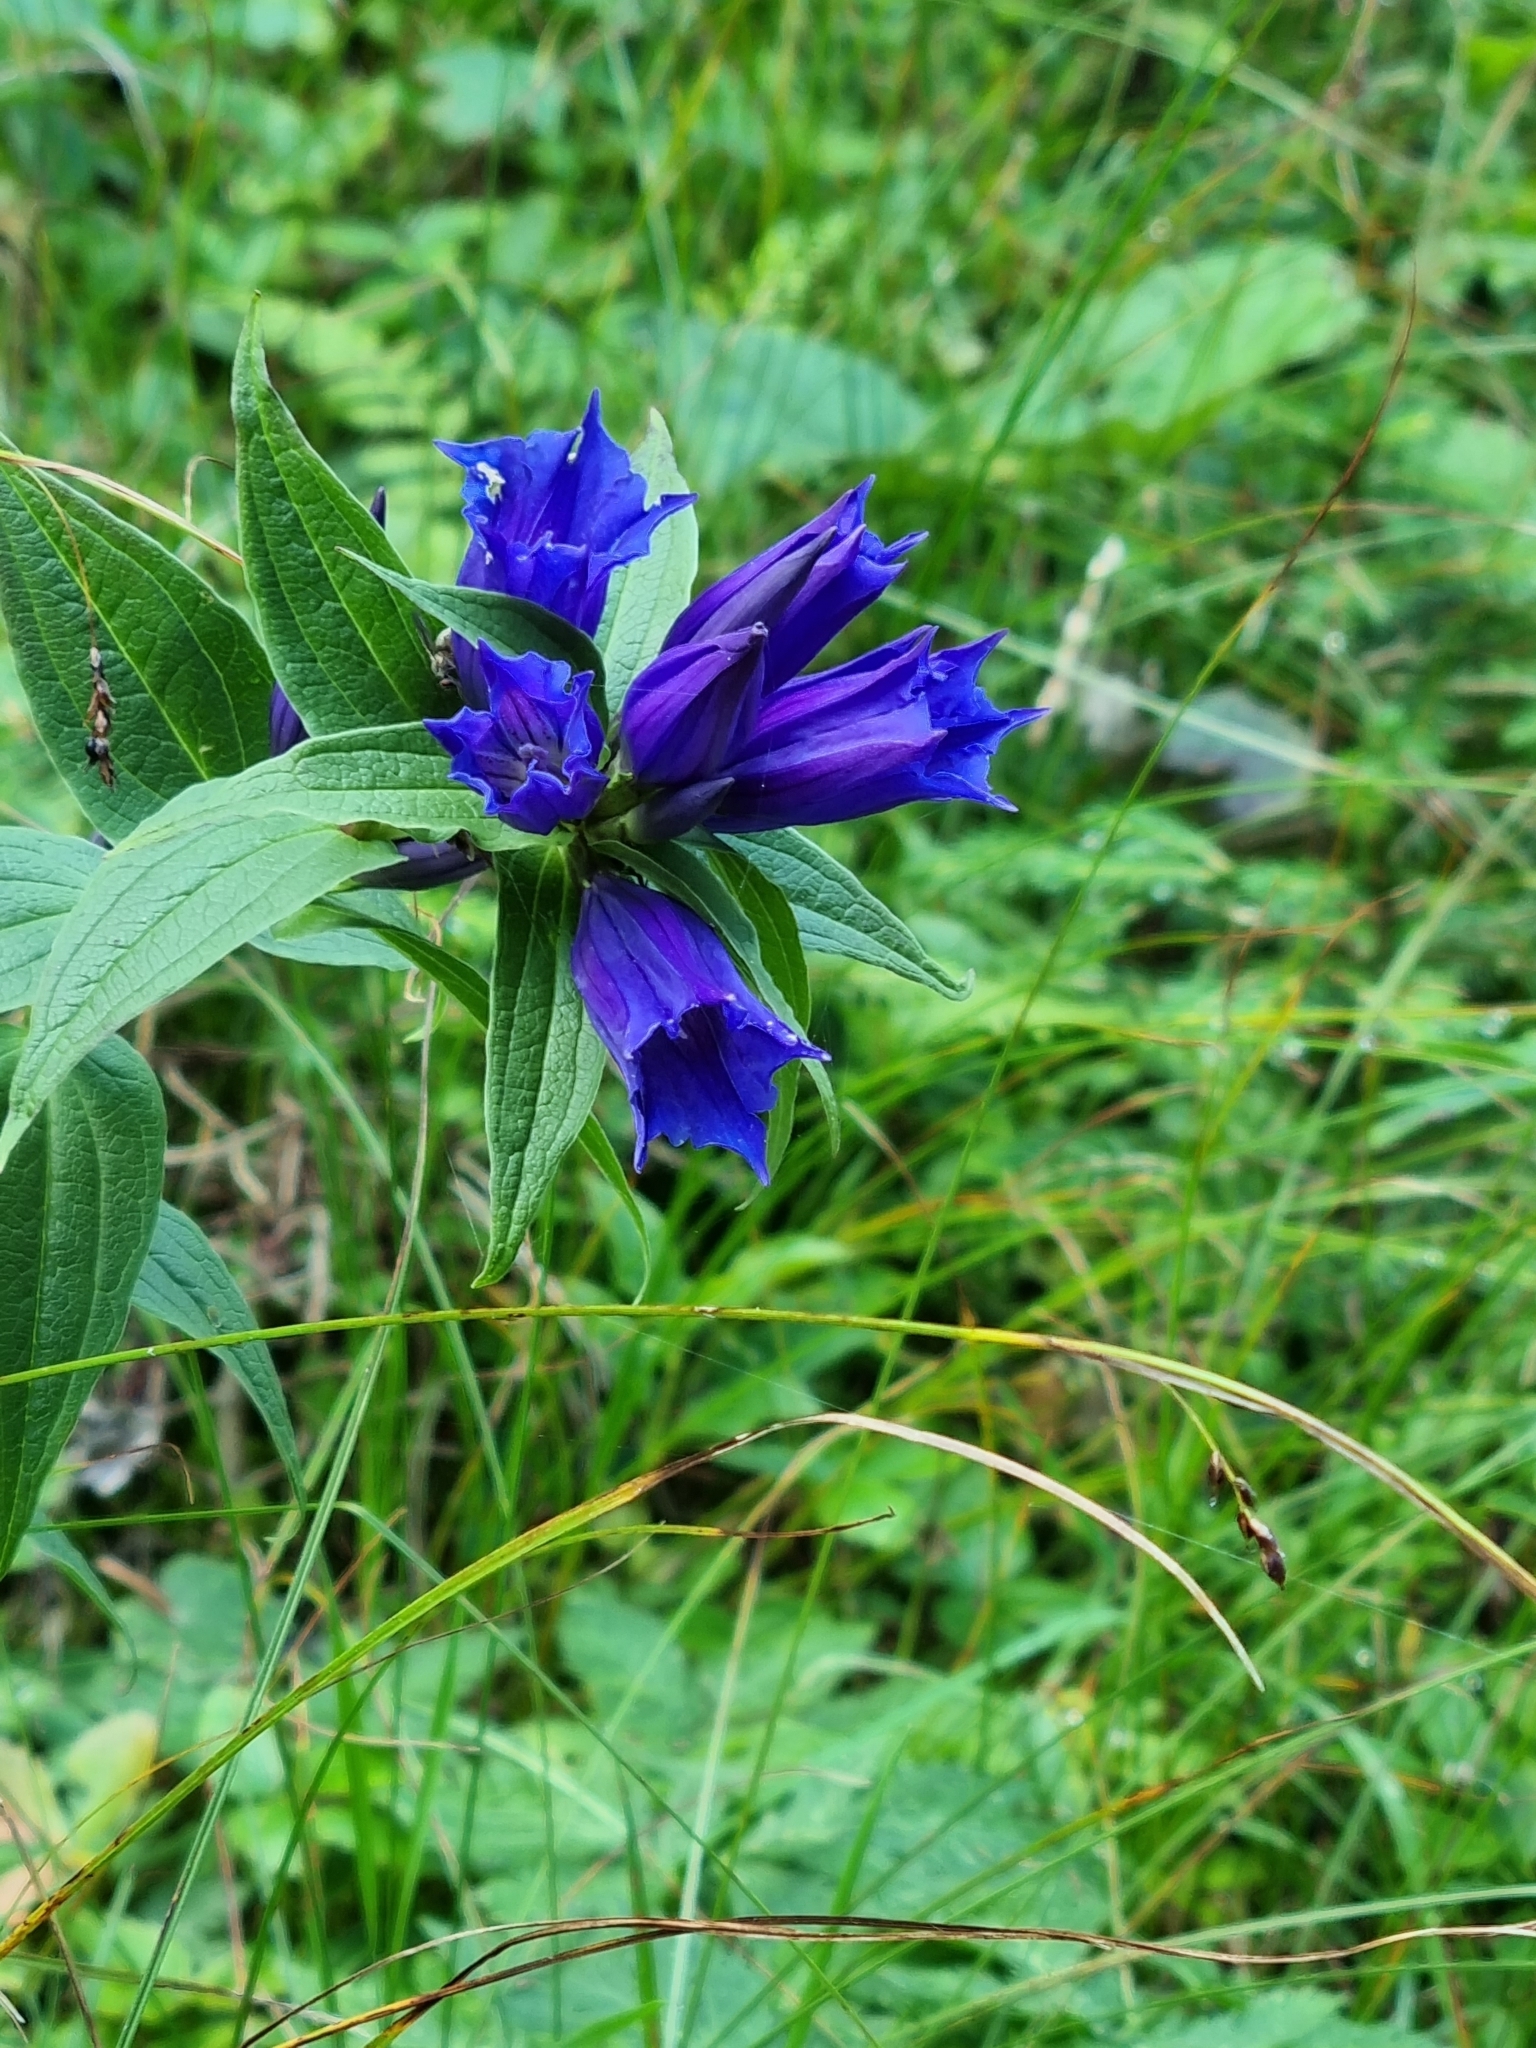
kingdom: Plantae
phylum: Tracheophyta
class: Magnoliopsida
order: Gentianales
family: Gentianaceae
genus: Gentiana
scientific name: Gentiana asclepiadea
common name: Willow gentian
